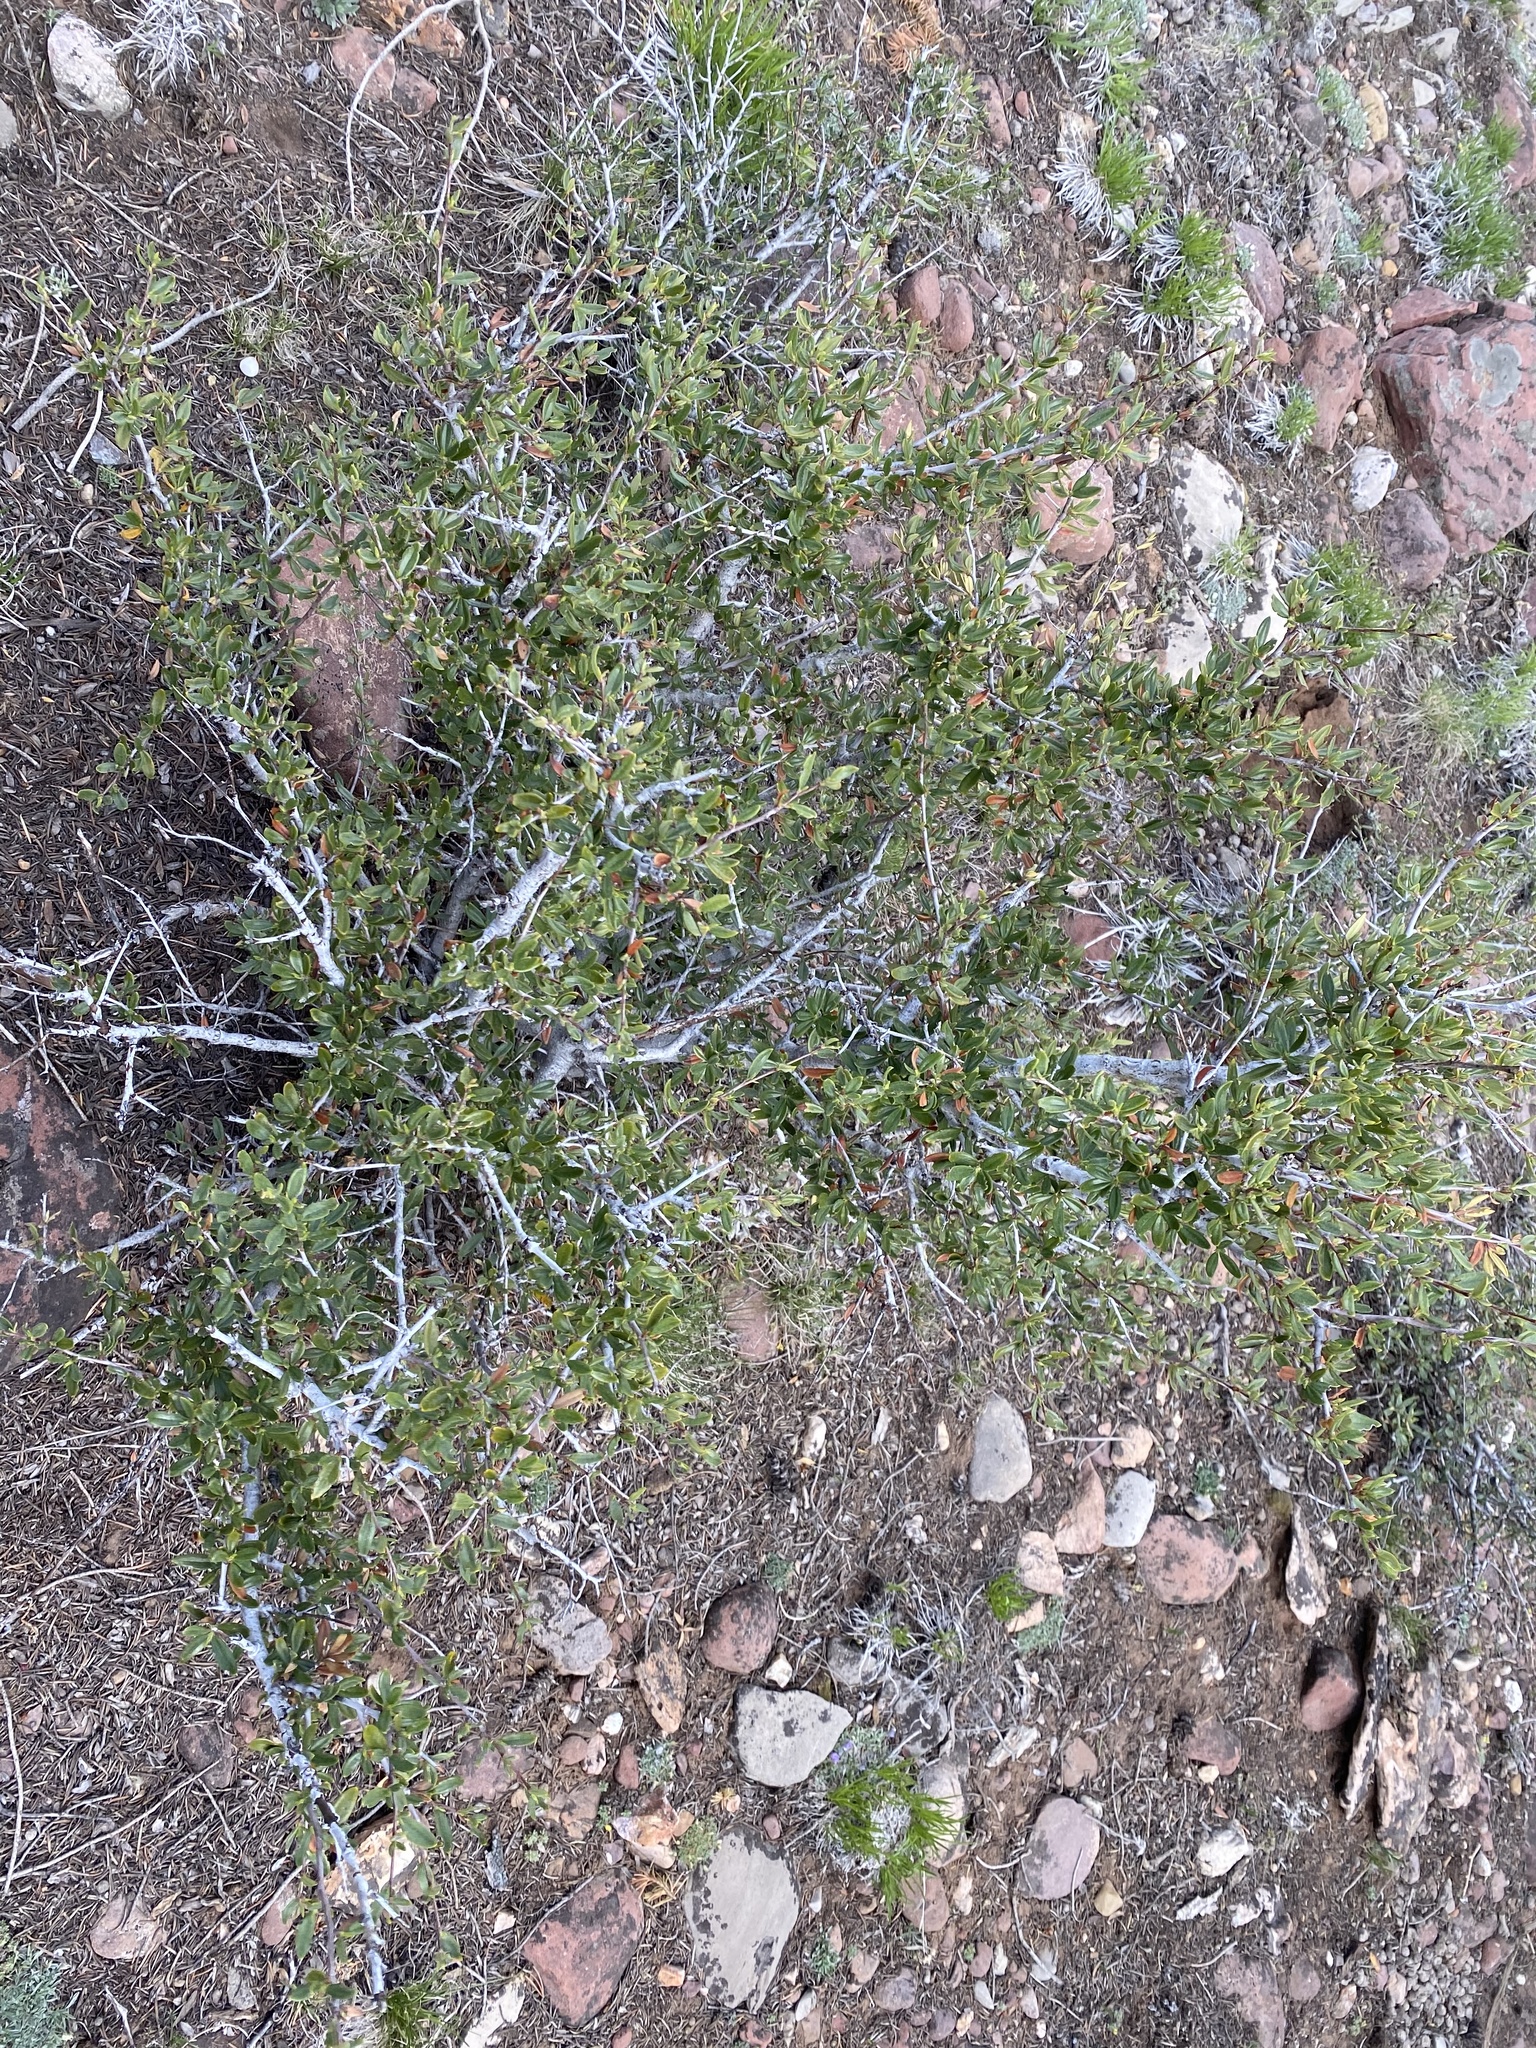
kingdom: Plantae
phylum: Tracheophyta
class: Magnoliopsida
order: Rosales
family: Rosaceae
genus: Cercocarpus
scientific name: Cercocarpus ledifolius
